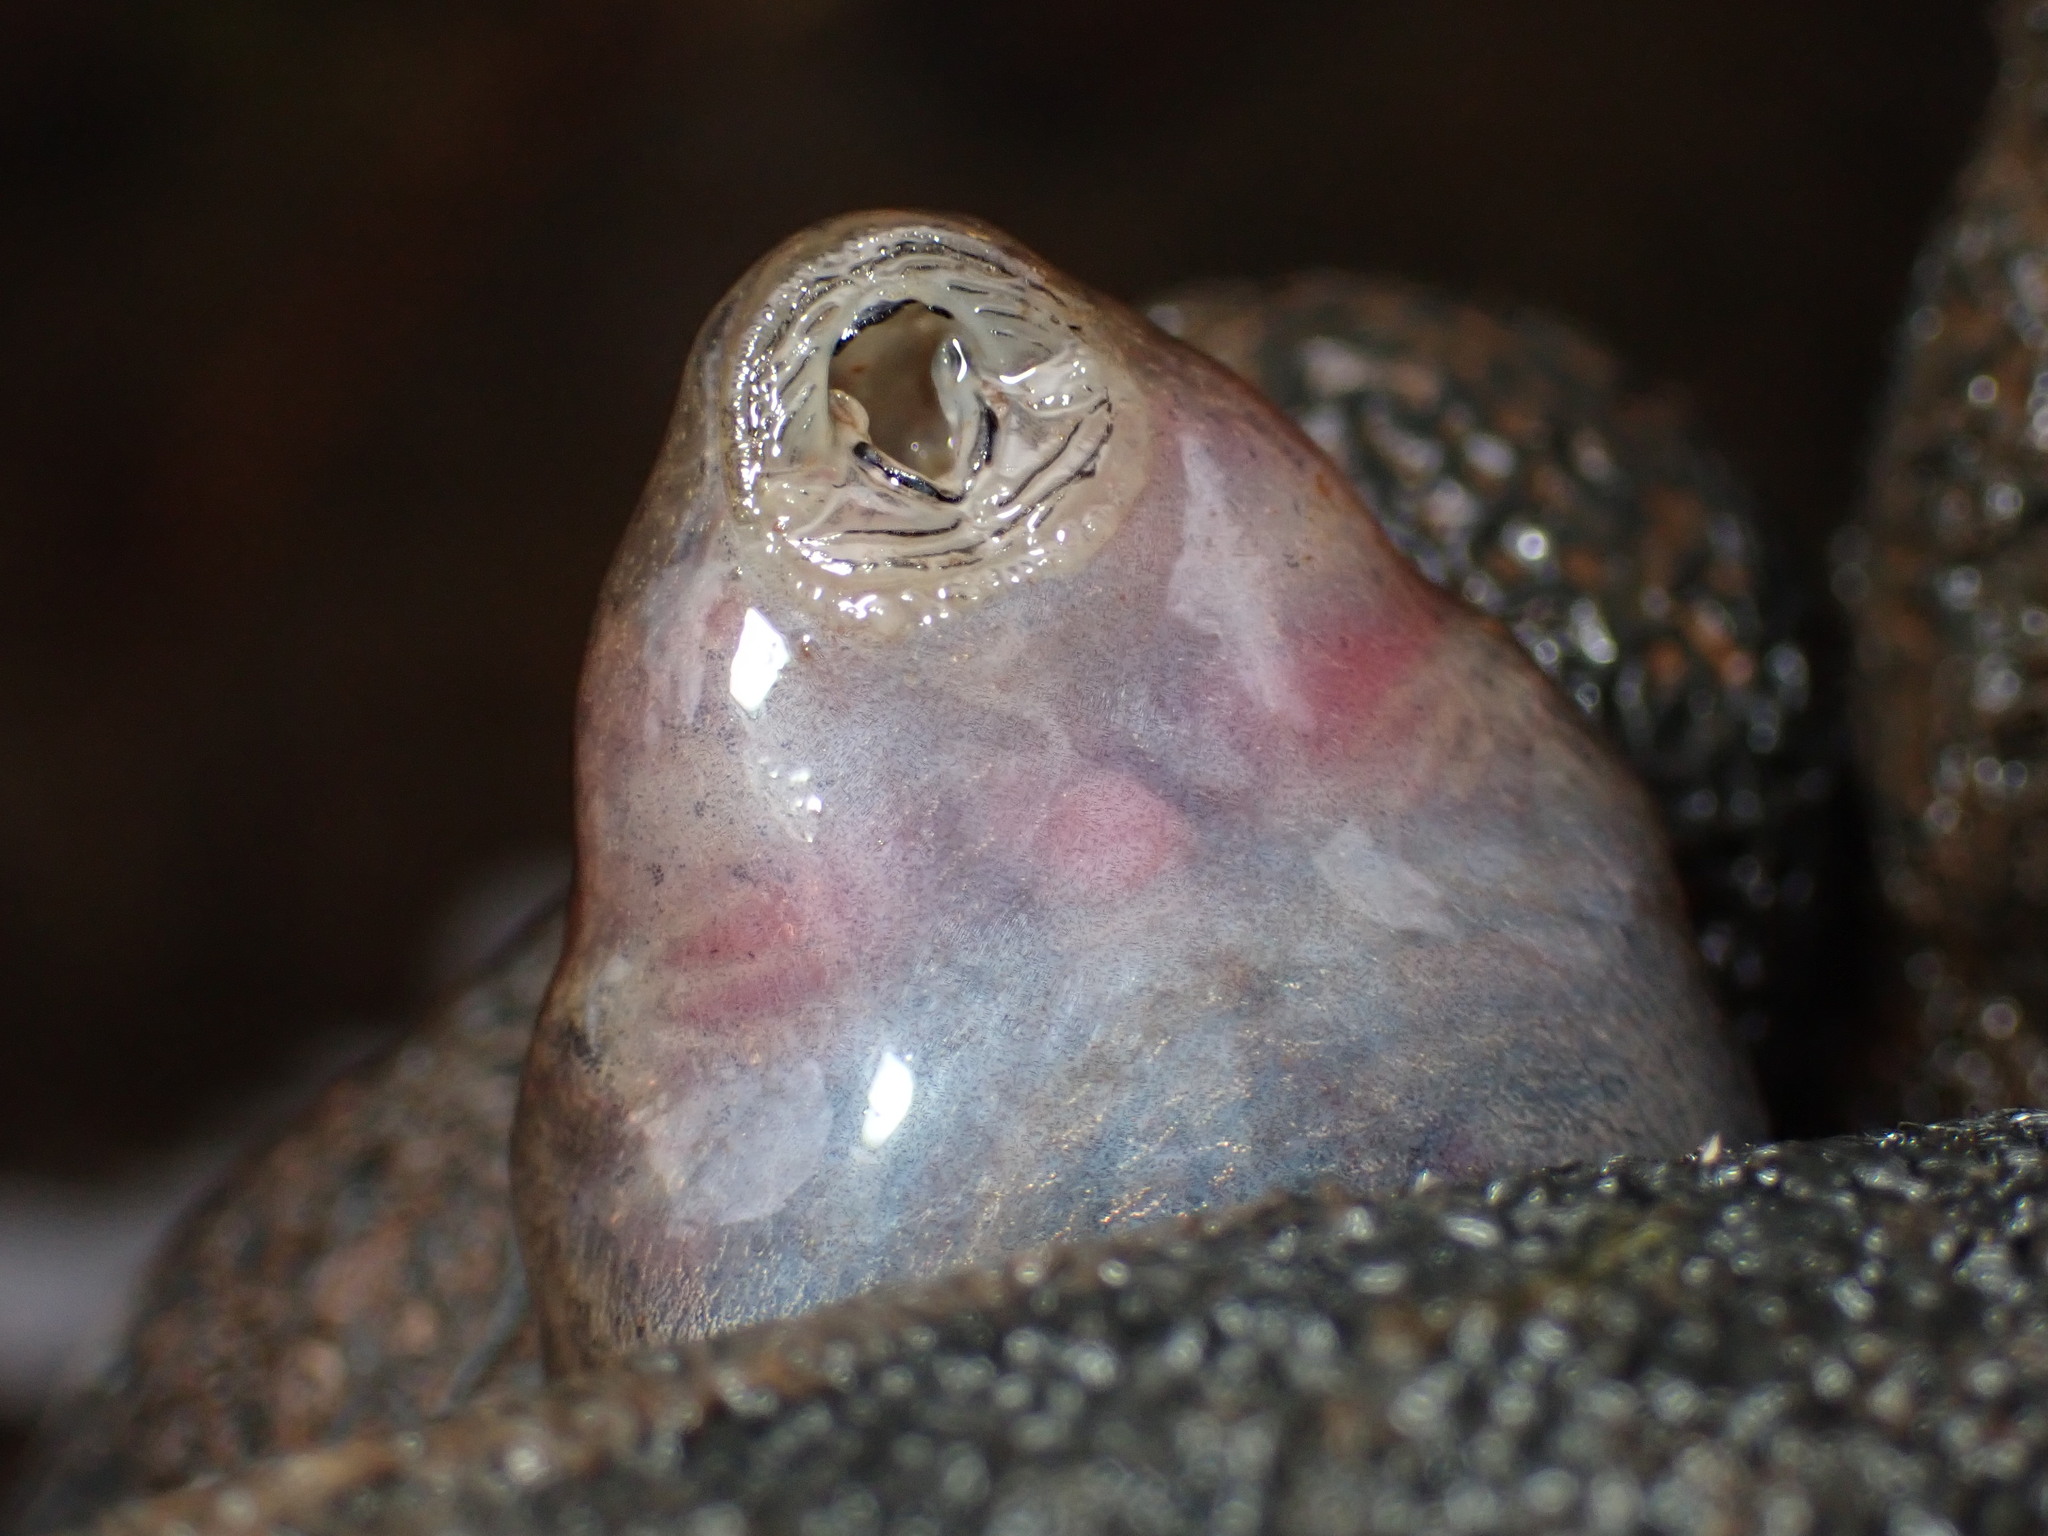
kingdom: Animalia
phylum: Chordata
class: Amphibia
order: Anura
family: Myobatrachidae
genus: Mixophyes
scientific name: Mixophyes fasciolatus
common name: Great barred river-frog
